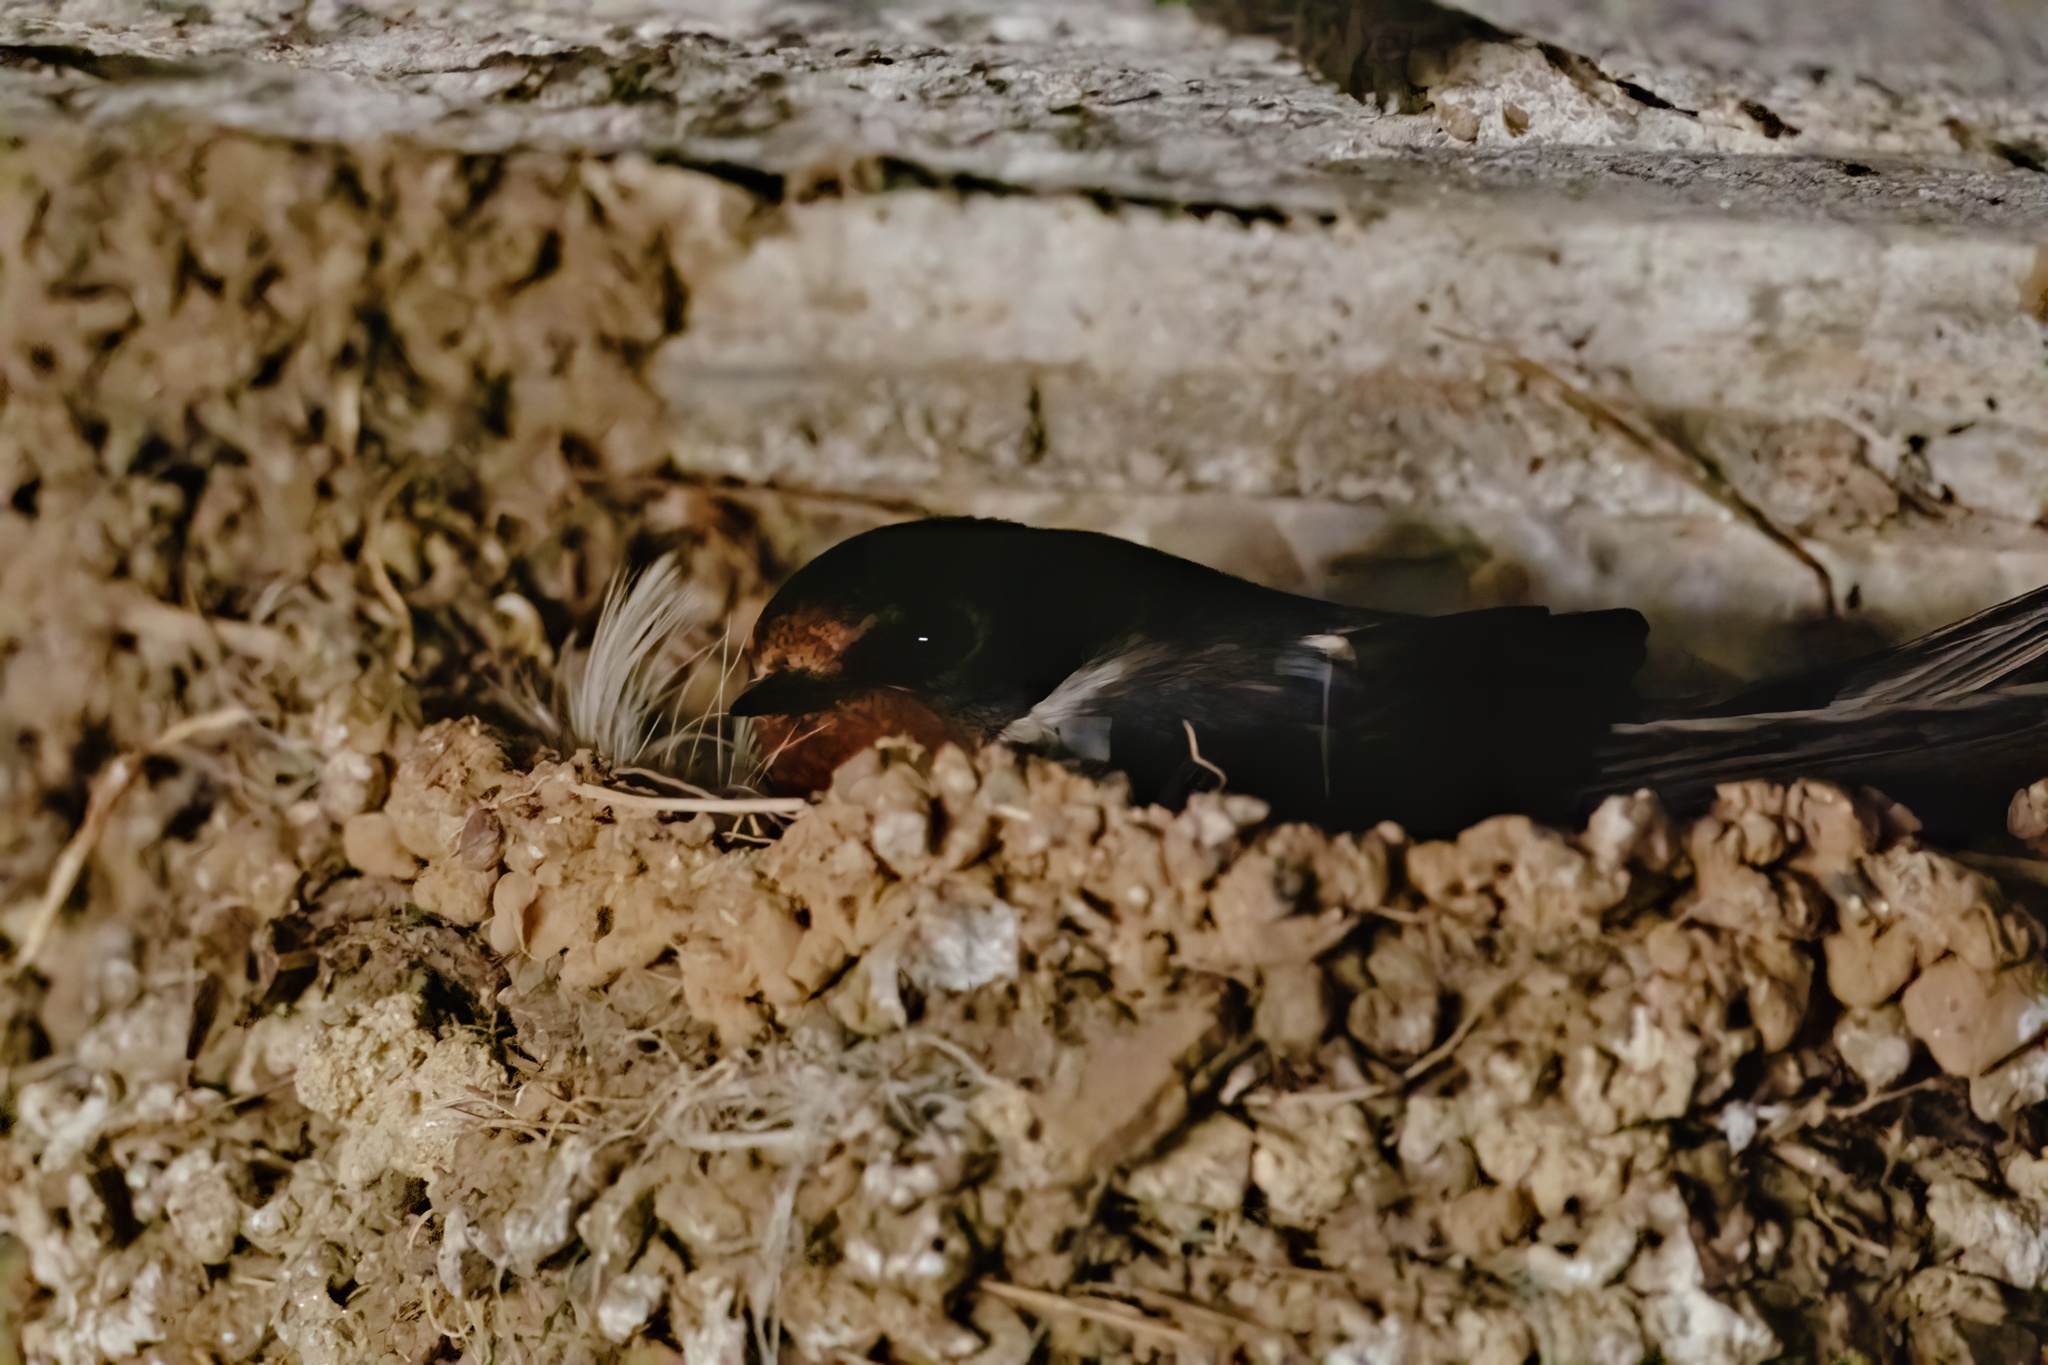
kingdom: Animalia
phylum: Chordata
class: Aves
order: Passeriformes
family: Hirundinidae
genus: Hirundo
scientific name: Hirundo rustica
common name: Barn swallow
